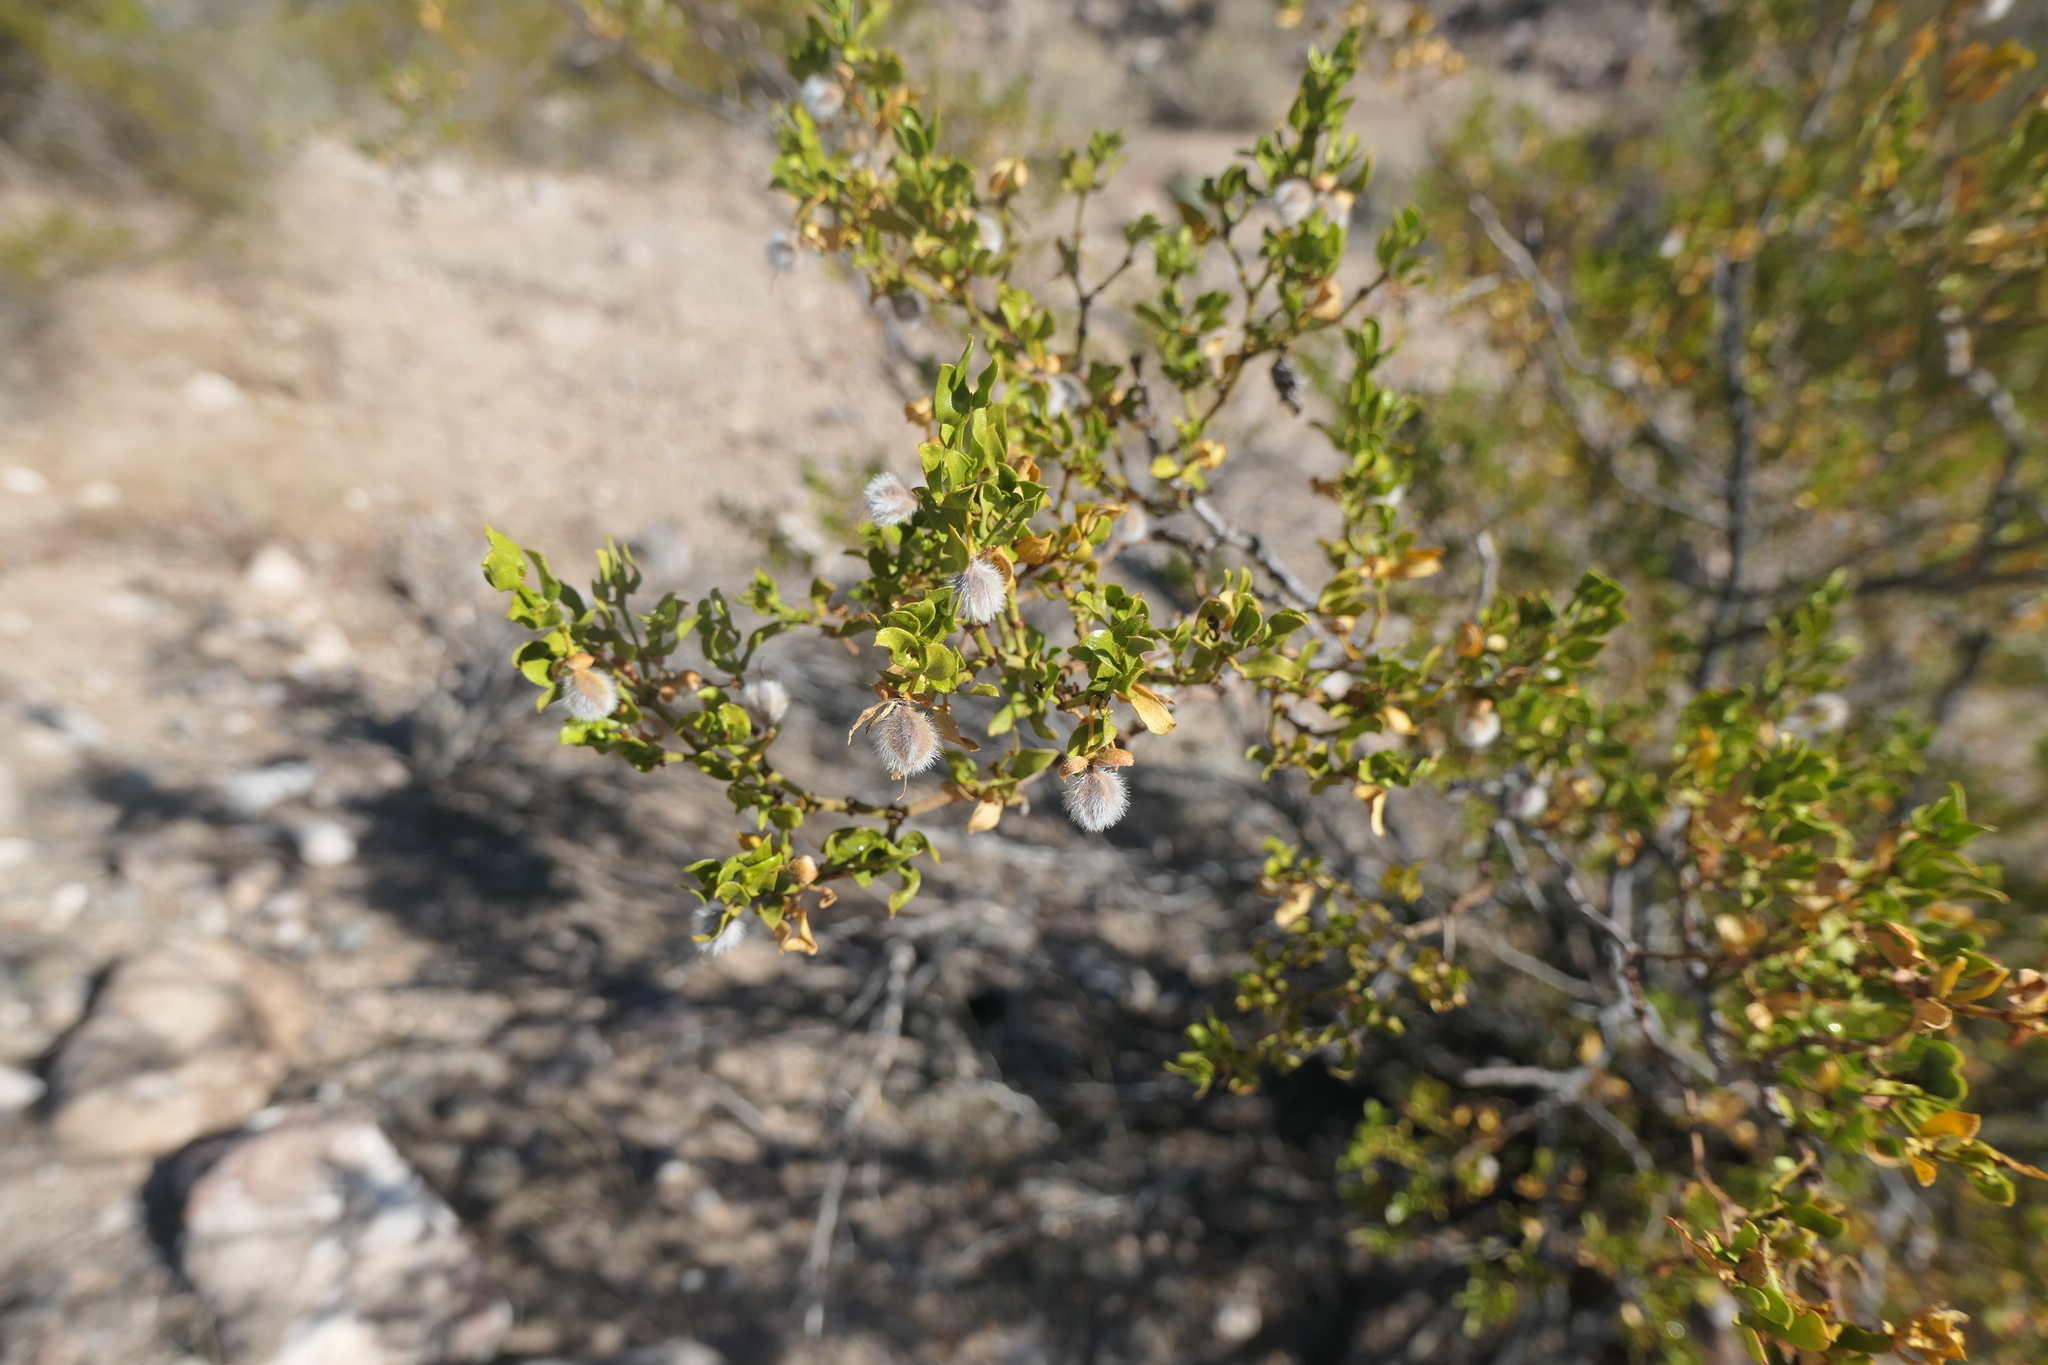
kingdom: Plantae
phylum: Tracheophyta
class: Magnoliopsida
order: Zygophyllales
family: Zygophyllaceae
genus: Larrea
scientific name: Larrea tridentata
